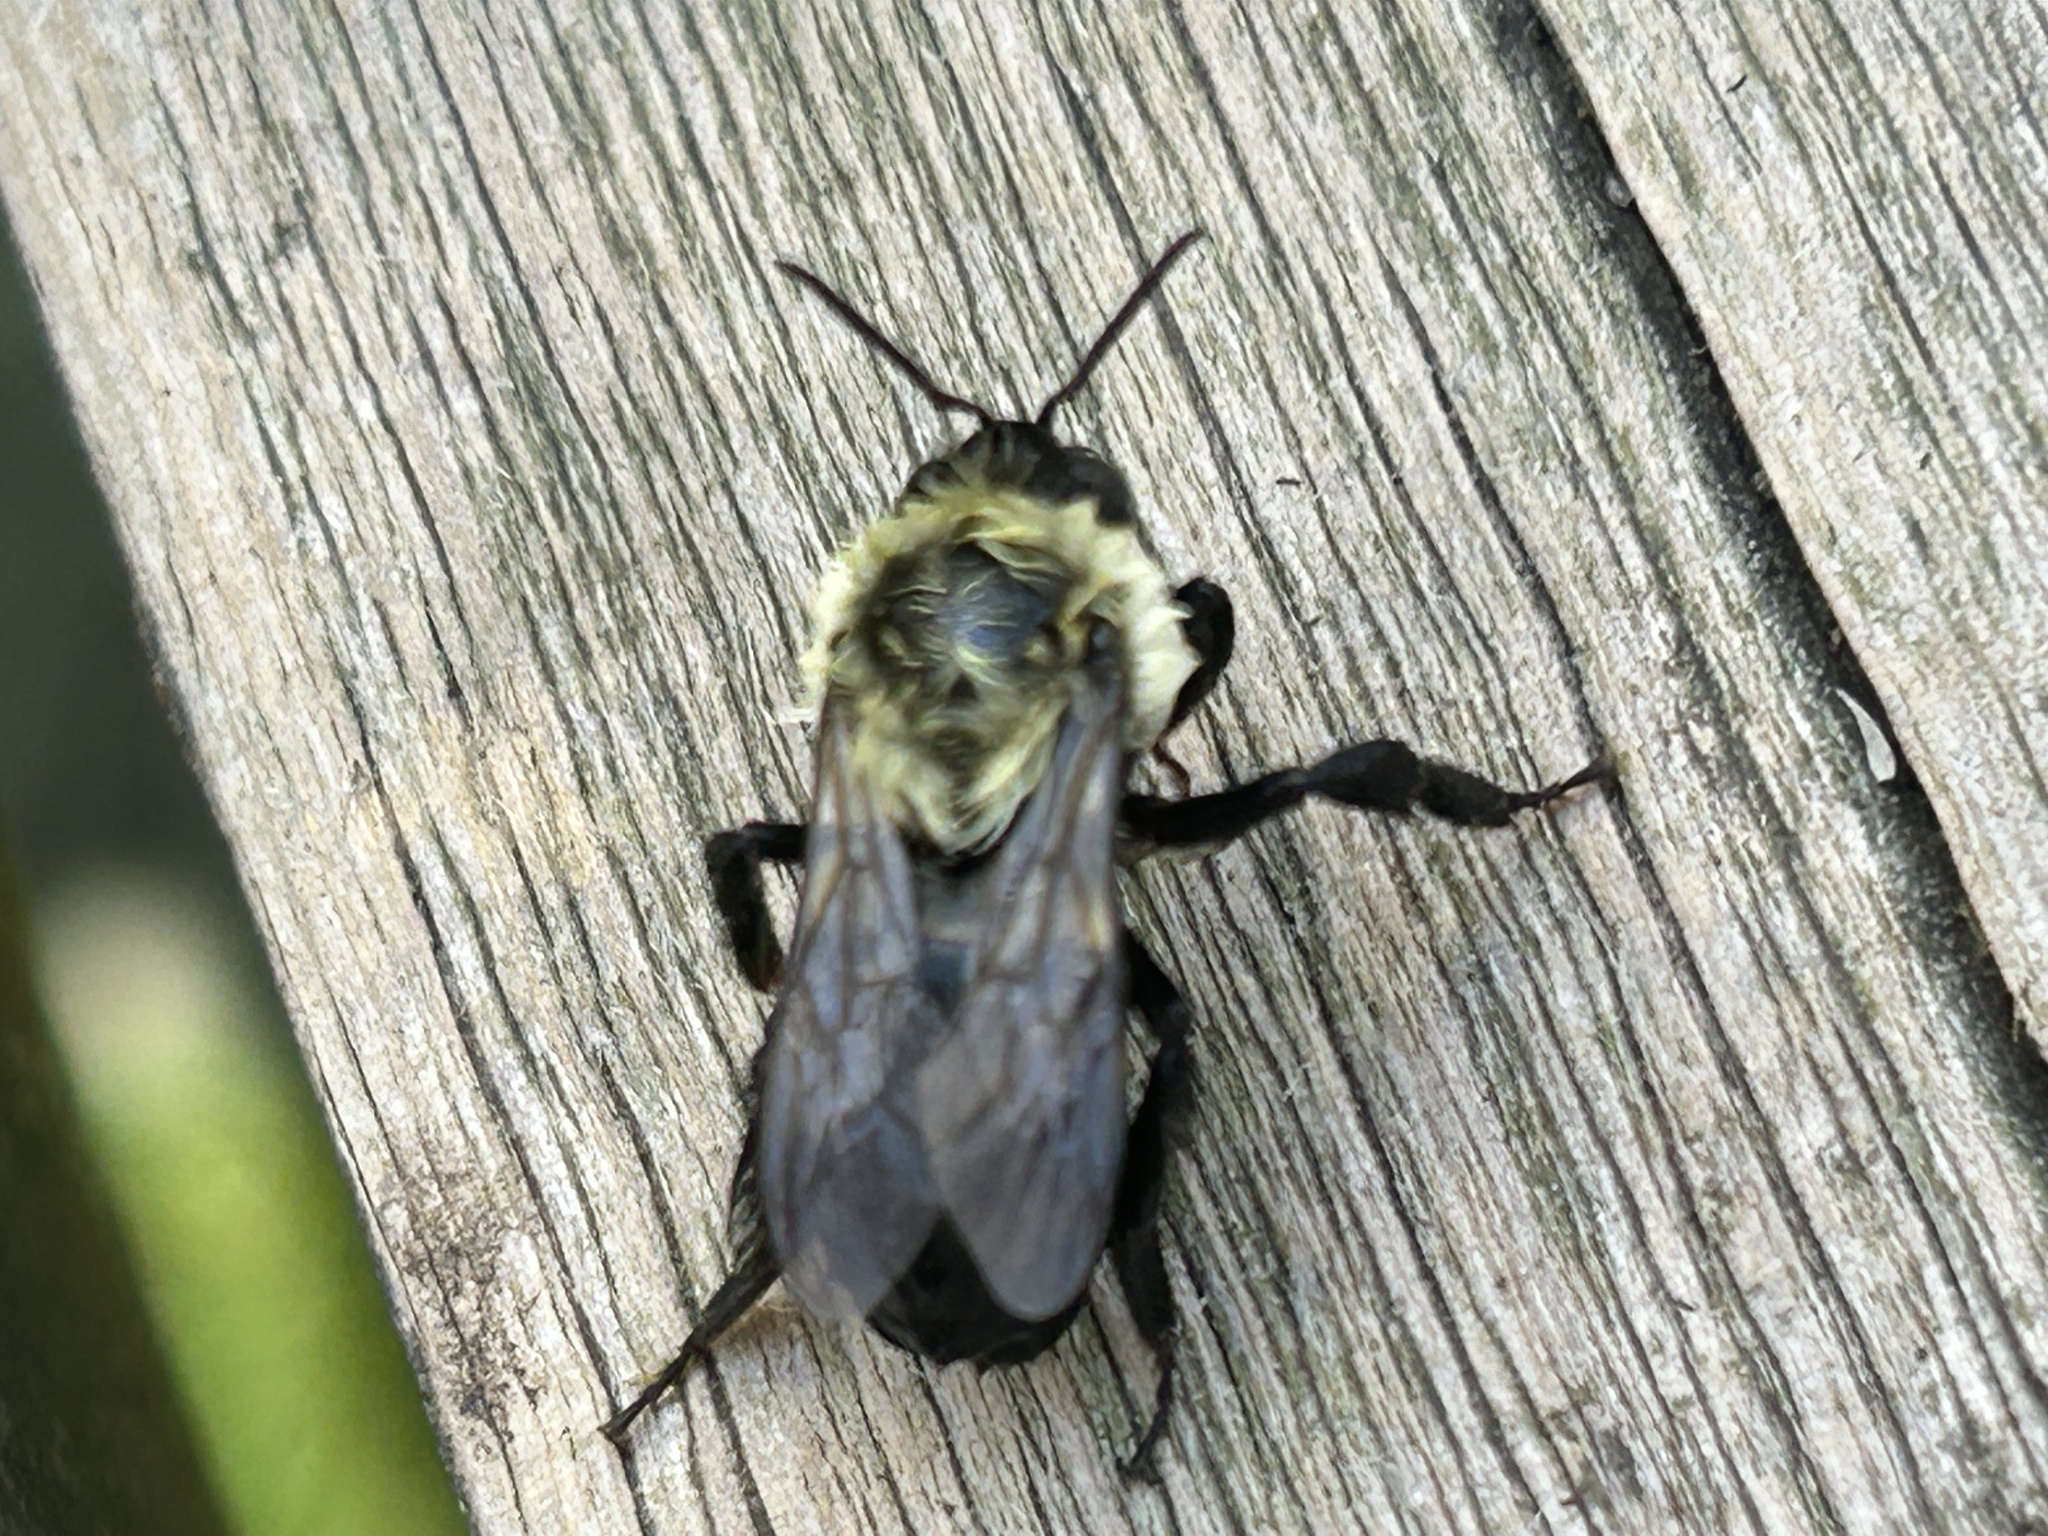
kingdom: Animalia
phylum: Arthropoda
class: Insecta
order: Hymenoptera
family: Apidae
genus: Bombus
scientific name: Bombus impatiens
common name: Common eastern bumble bee
